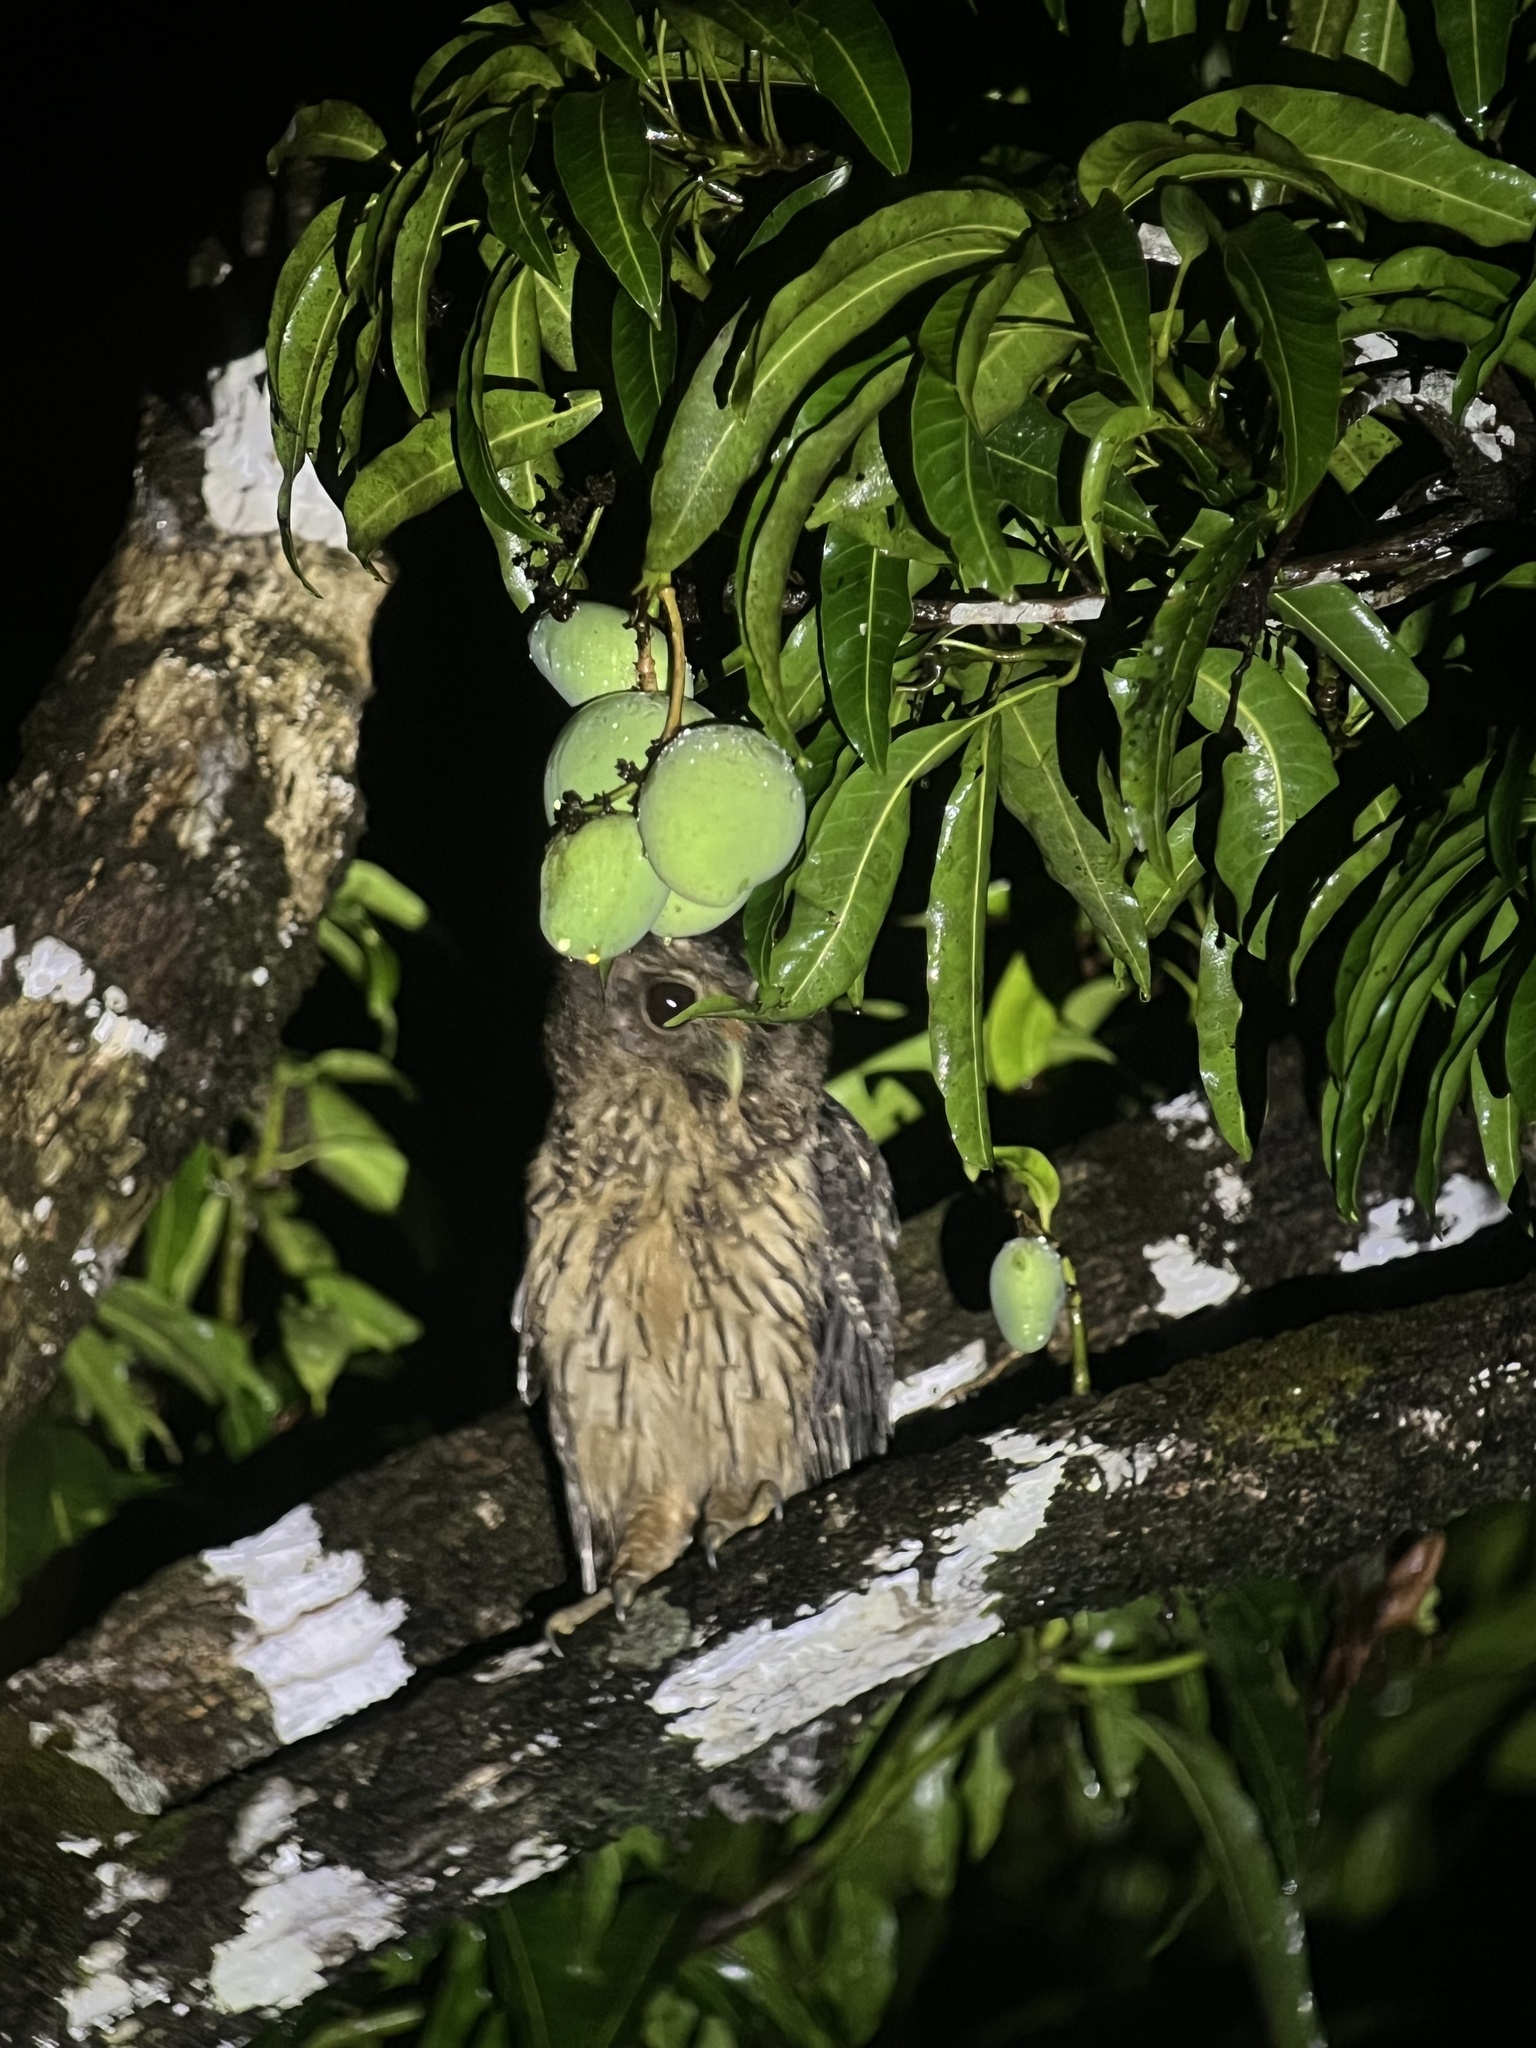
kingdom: Animalia
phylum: Chordata
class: Aves
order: Strigiformes
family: Strigidae
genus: Strix
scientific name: Strix virgata
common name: Mottled owl
